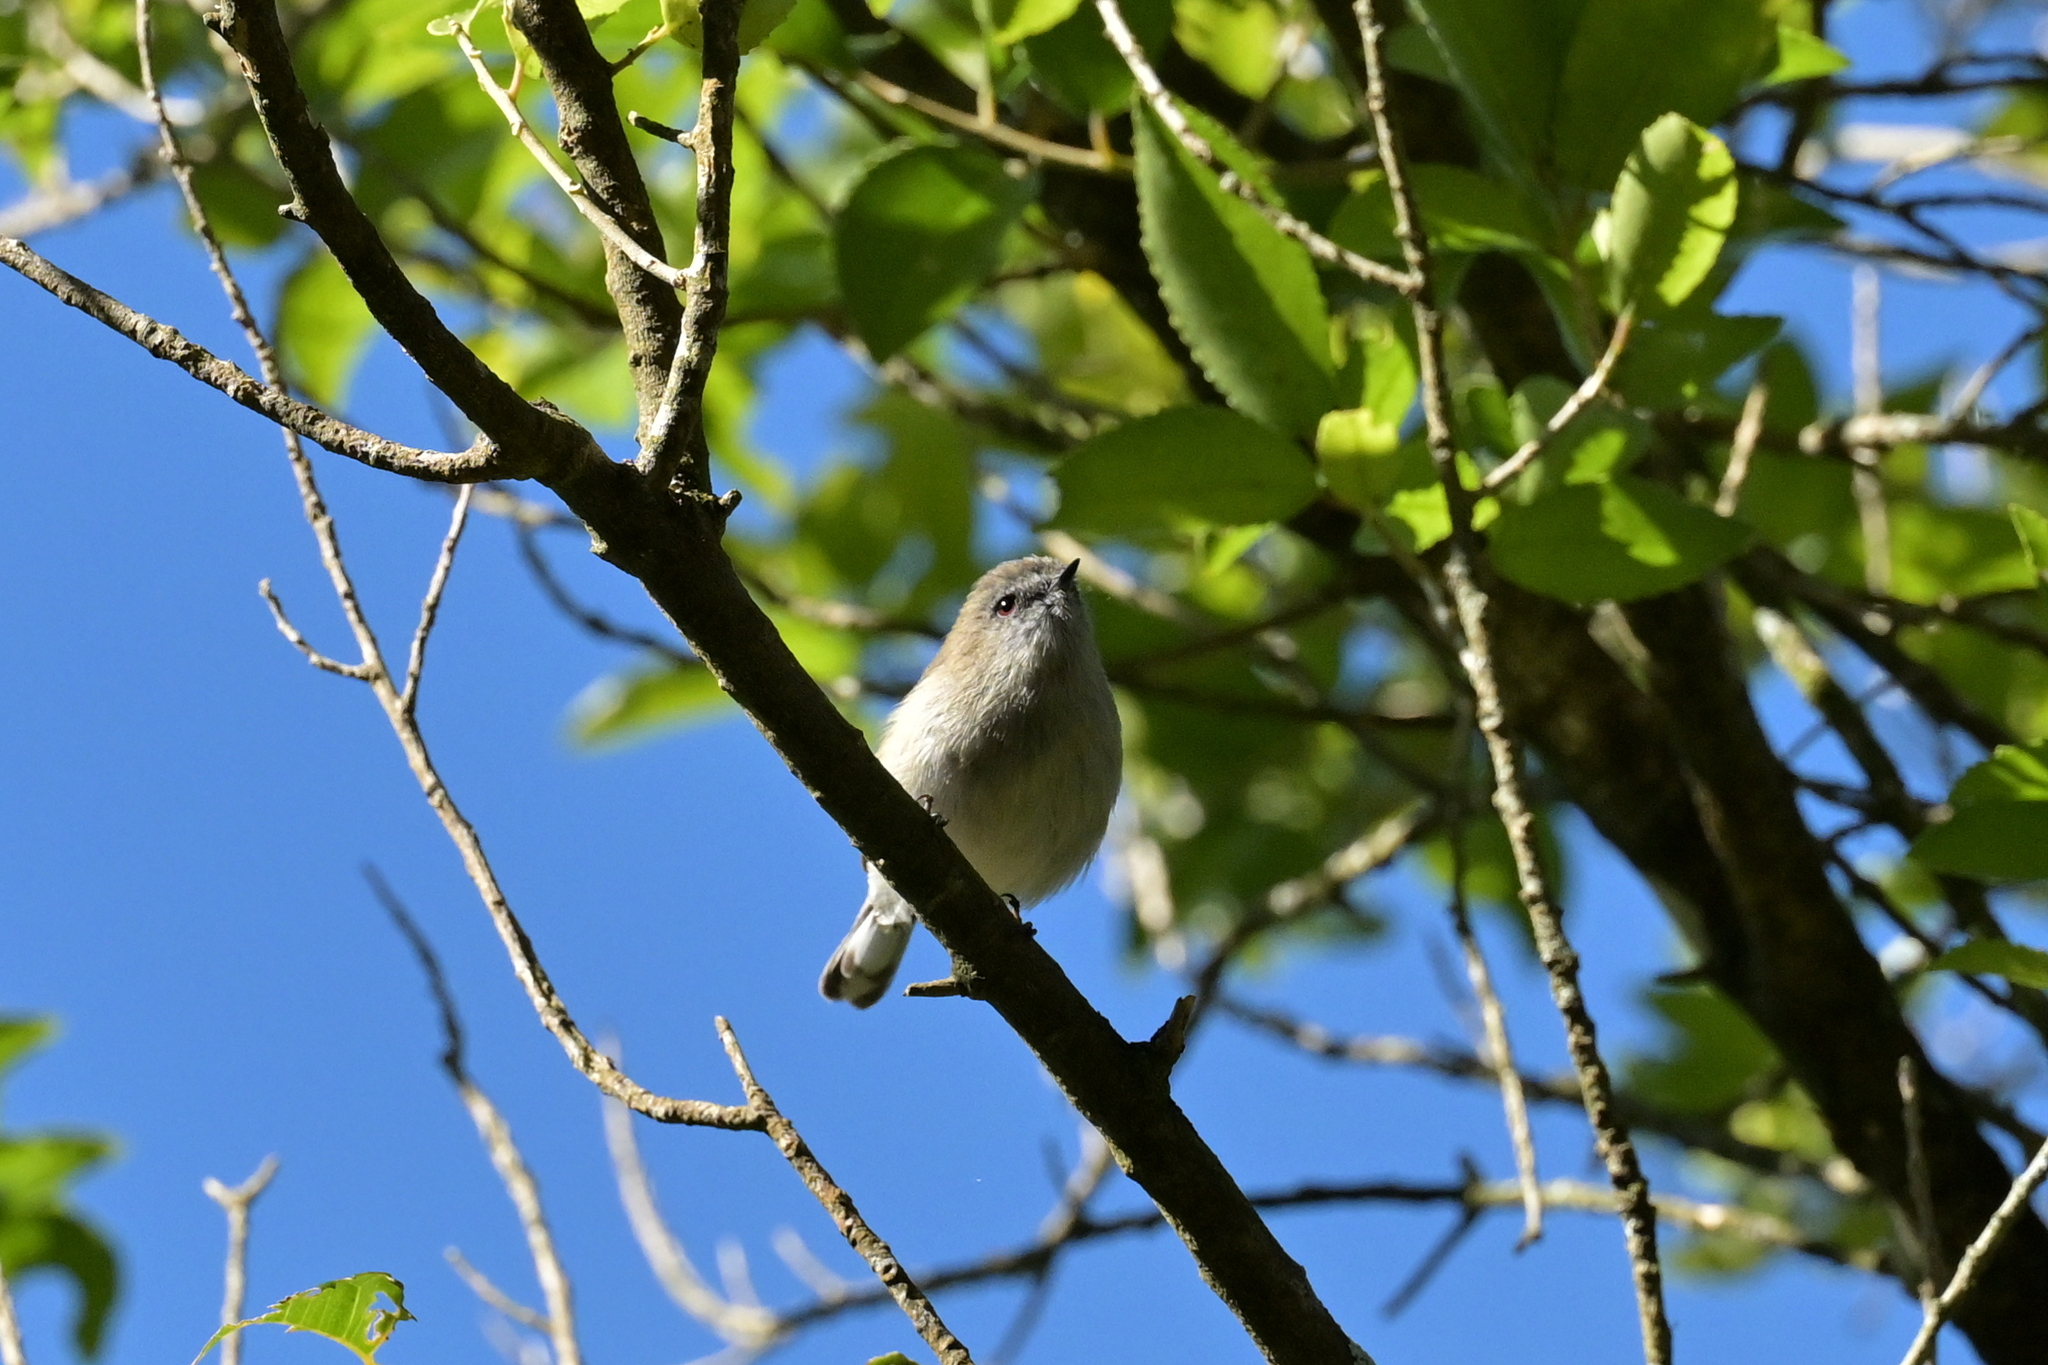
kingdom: Animalia
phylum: Chordata
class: Aves
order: Passeriformes
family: Acanthizidae
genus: Gerygone
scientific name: Gerygone igata
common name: Grey gerygone
